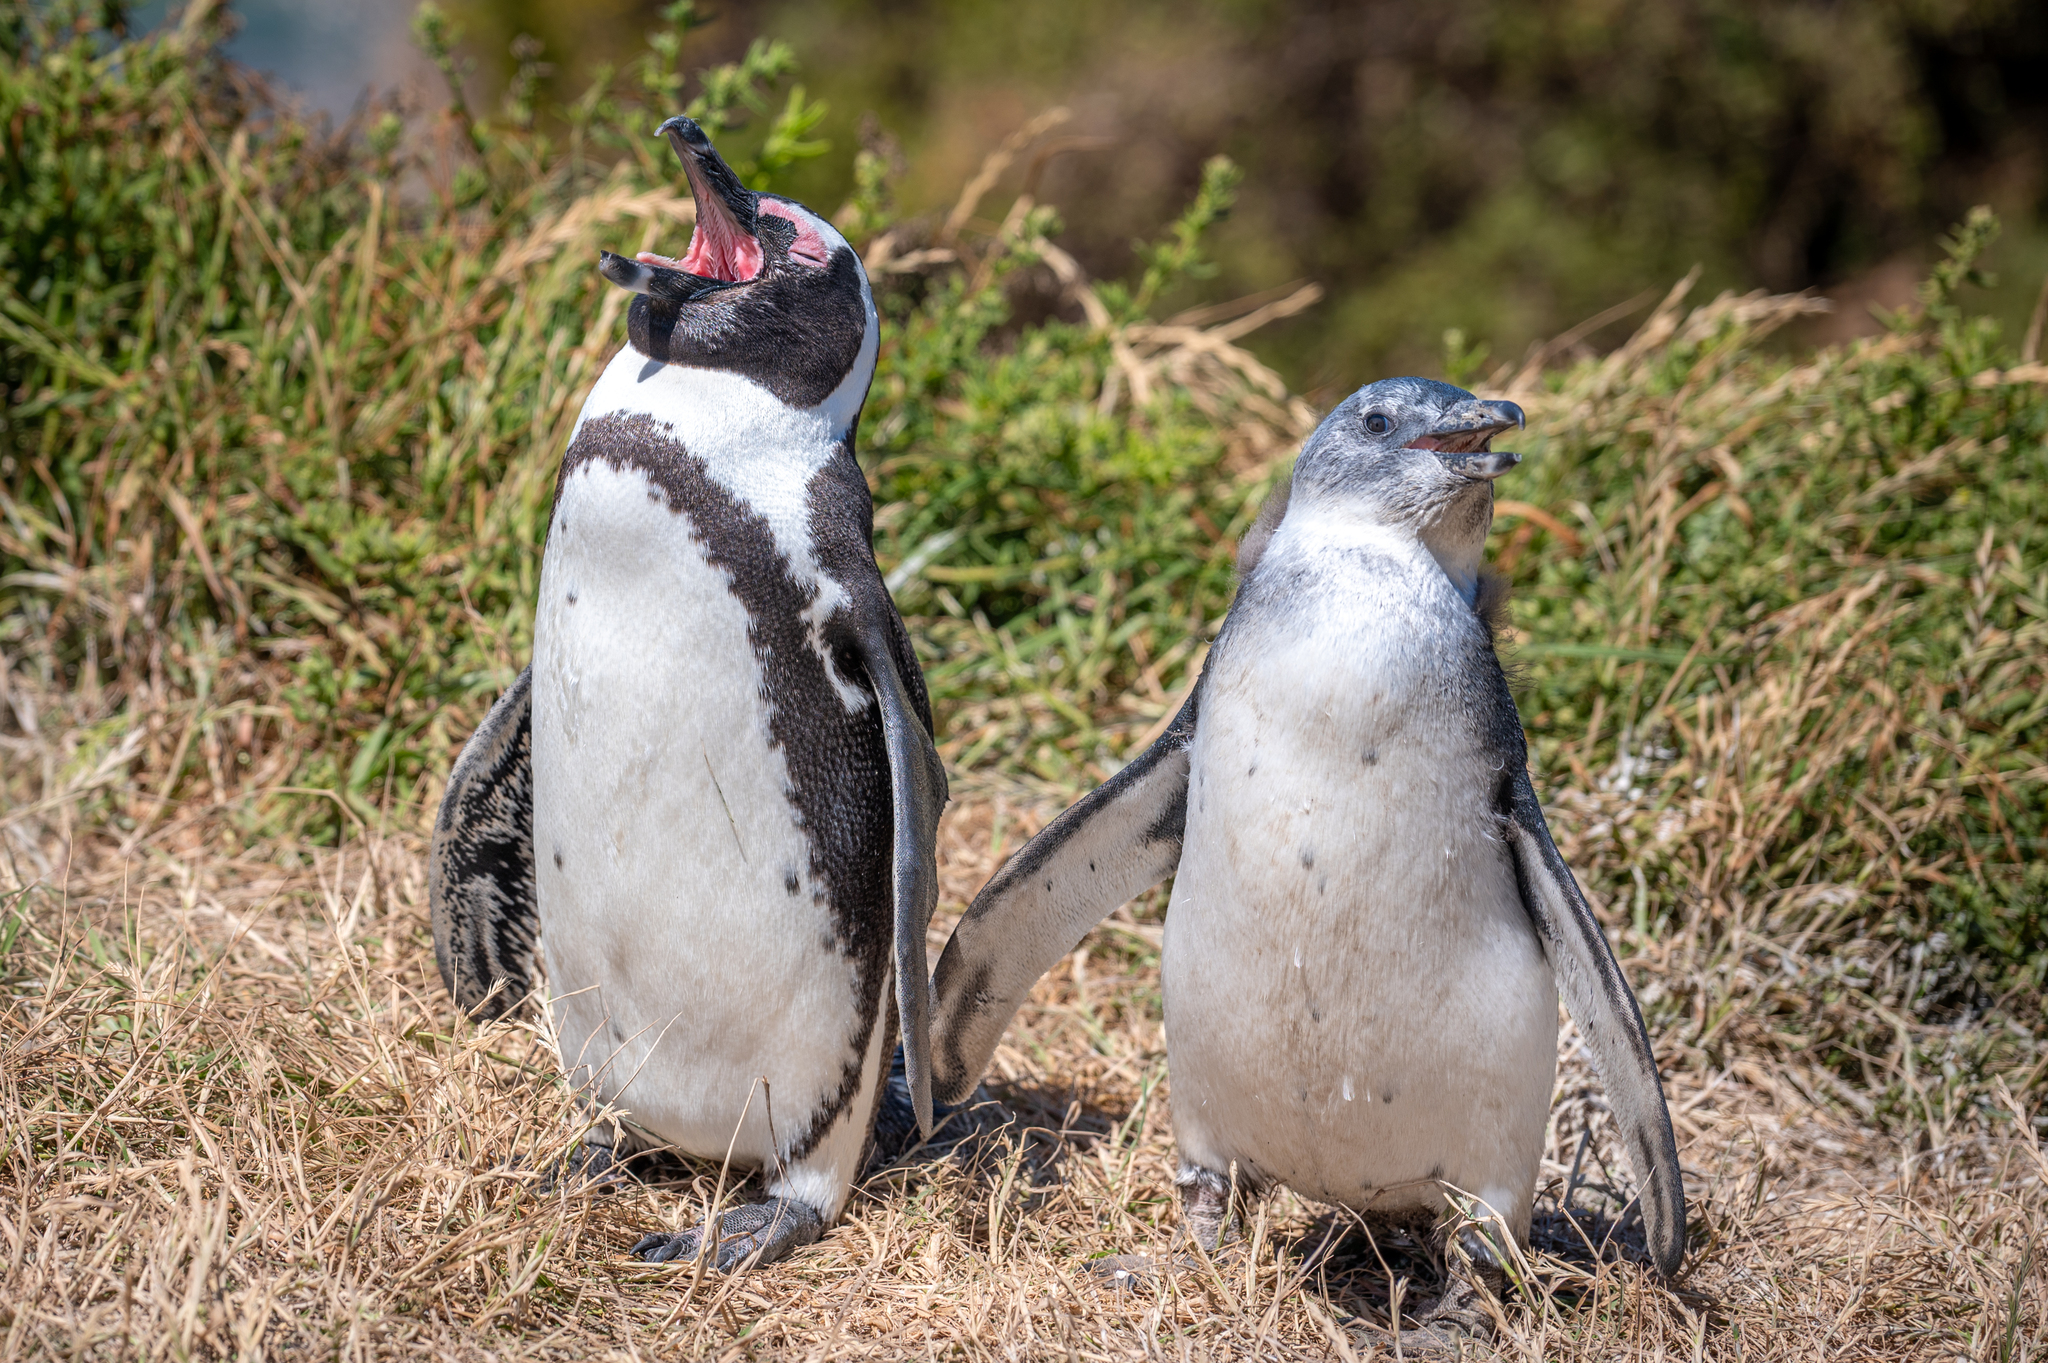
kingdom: Animalia
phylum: Chordata
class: Aves
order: Sphenisciformes
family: Spheniscidae
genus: Spheniscus
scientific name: Spheniscus demersus
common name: African penguin
